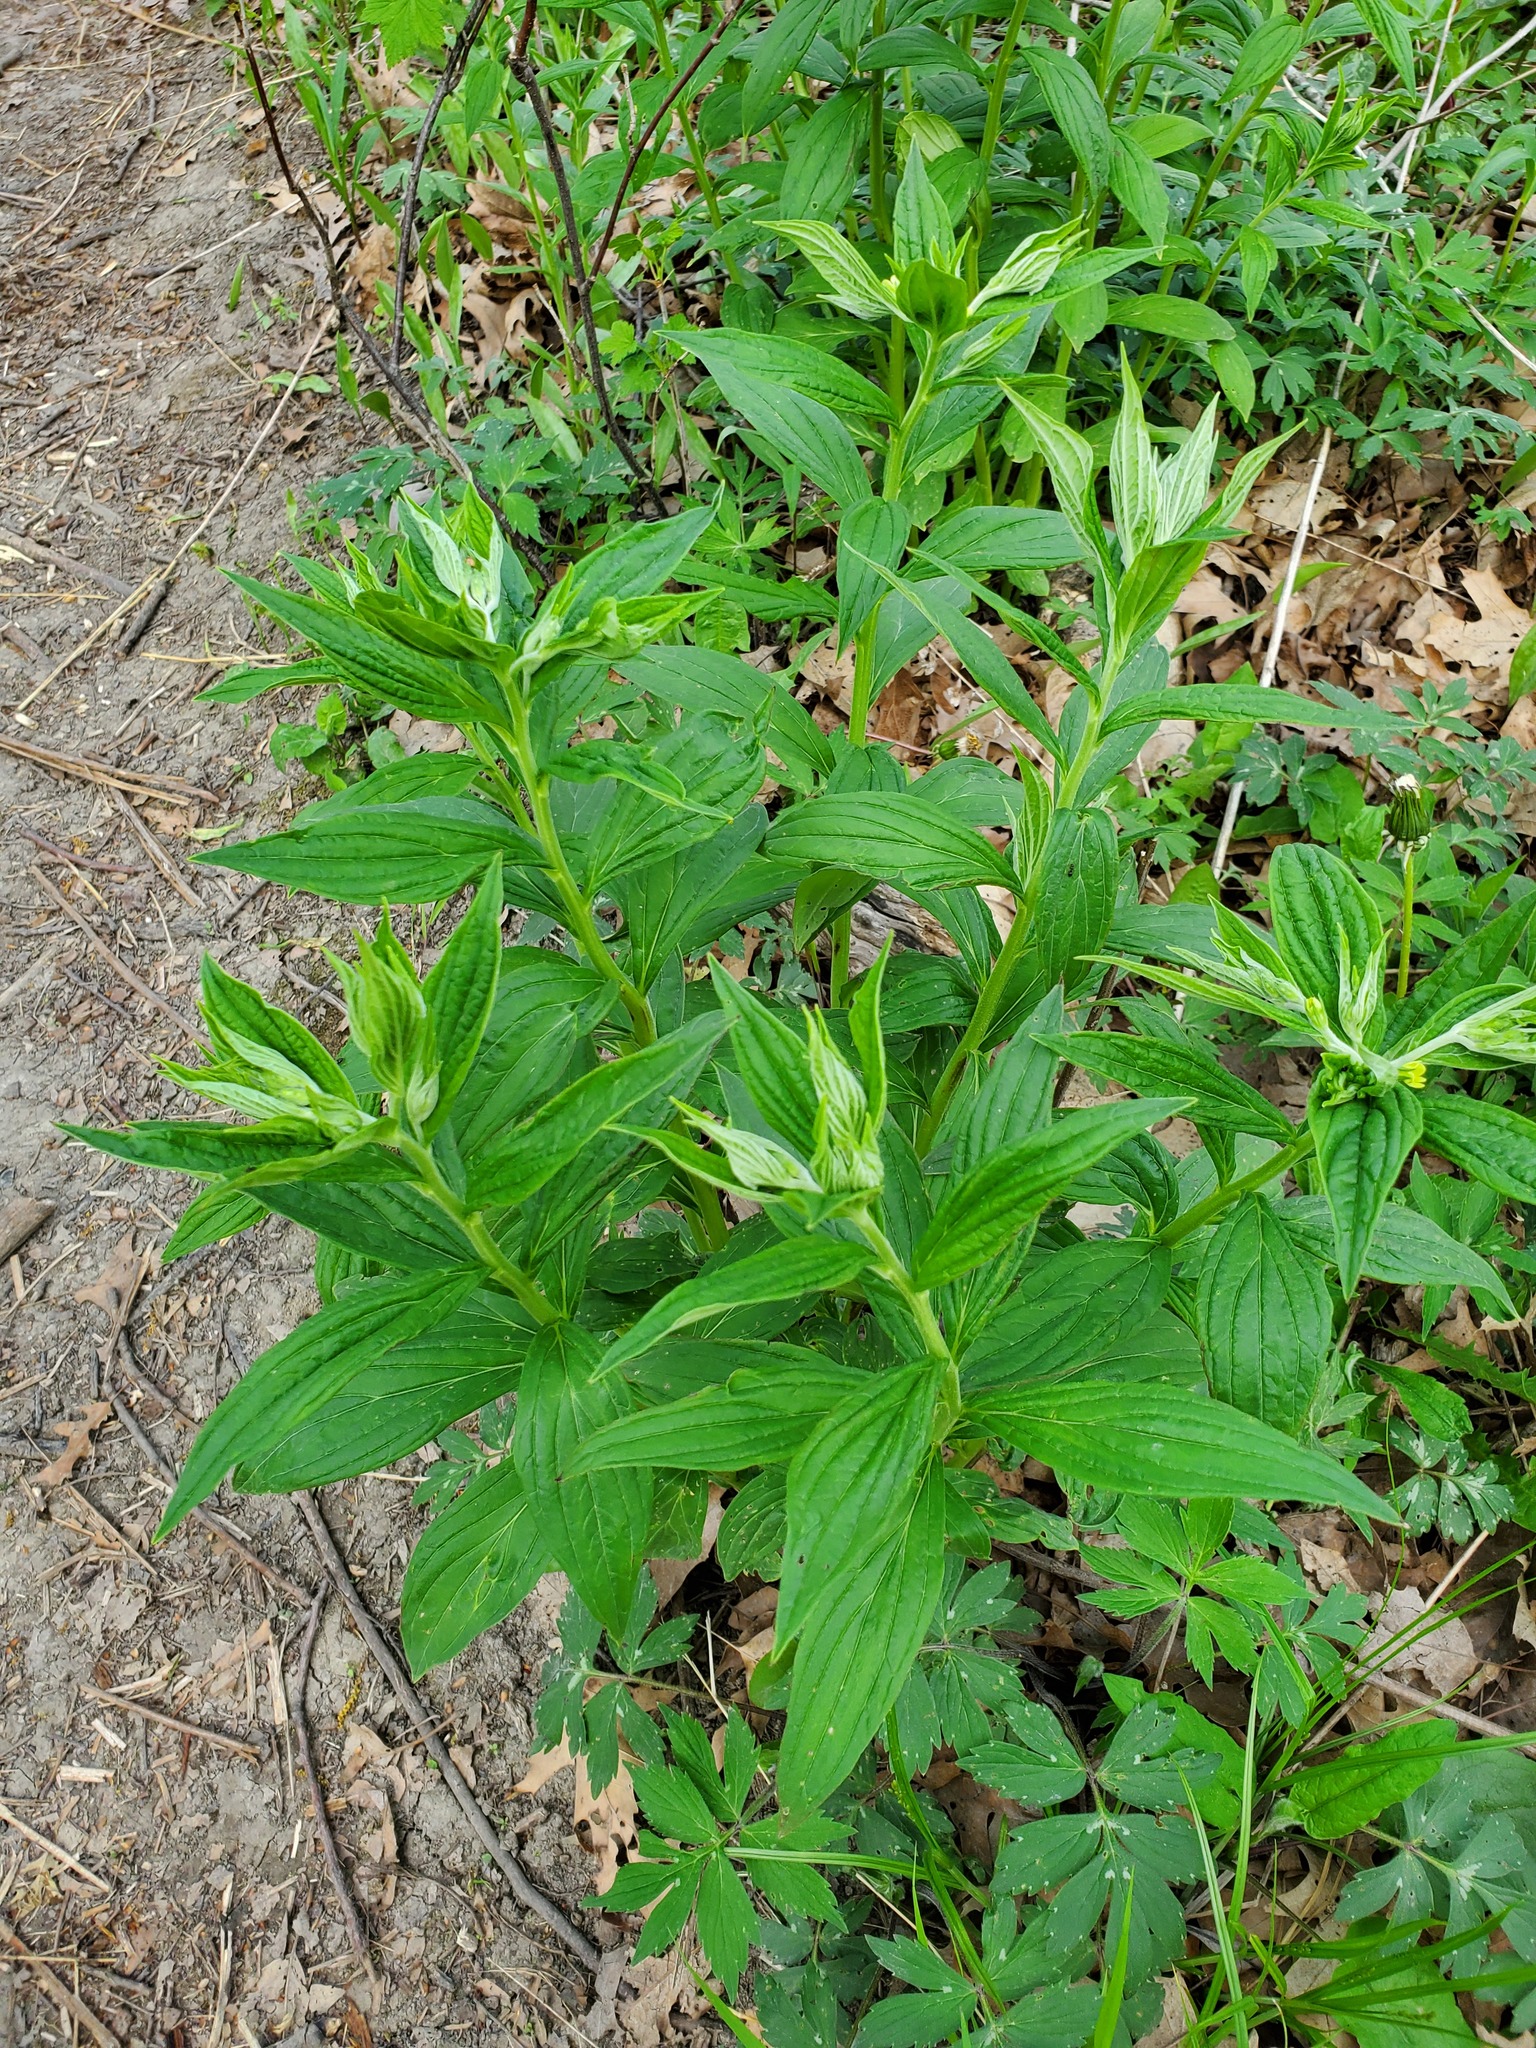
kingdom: Plantae
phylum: Tracheophyta
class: Magnoliopsida
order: Boraginales
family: Boraginaceae
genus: Lithospermum
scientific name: Lithospermum latifolium
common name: American gromwell
